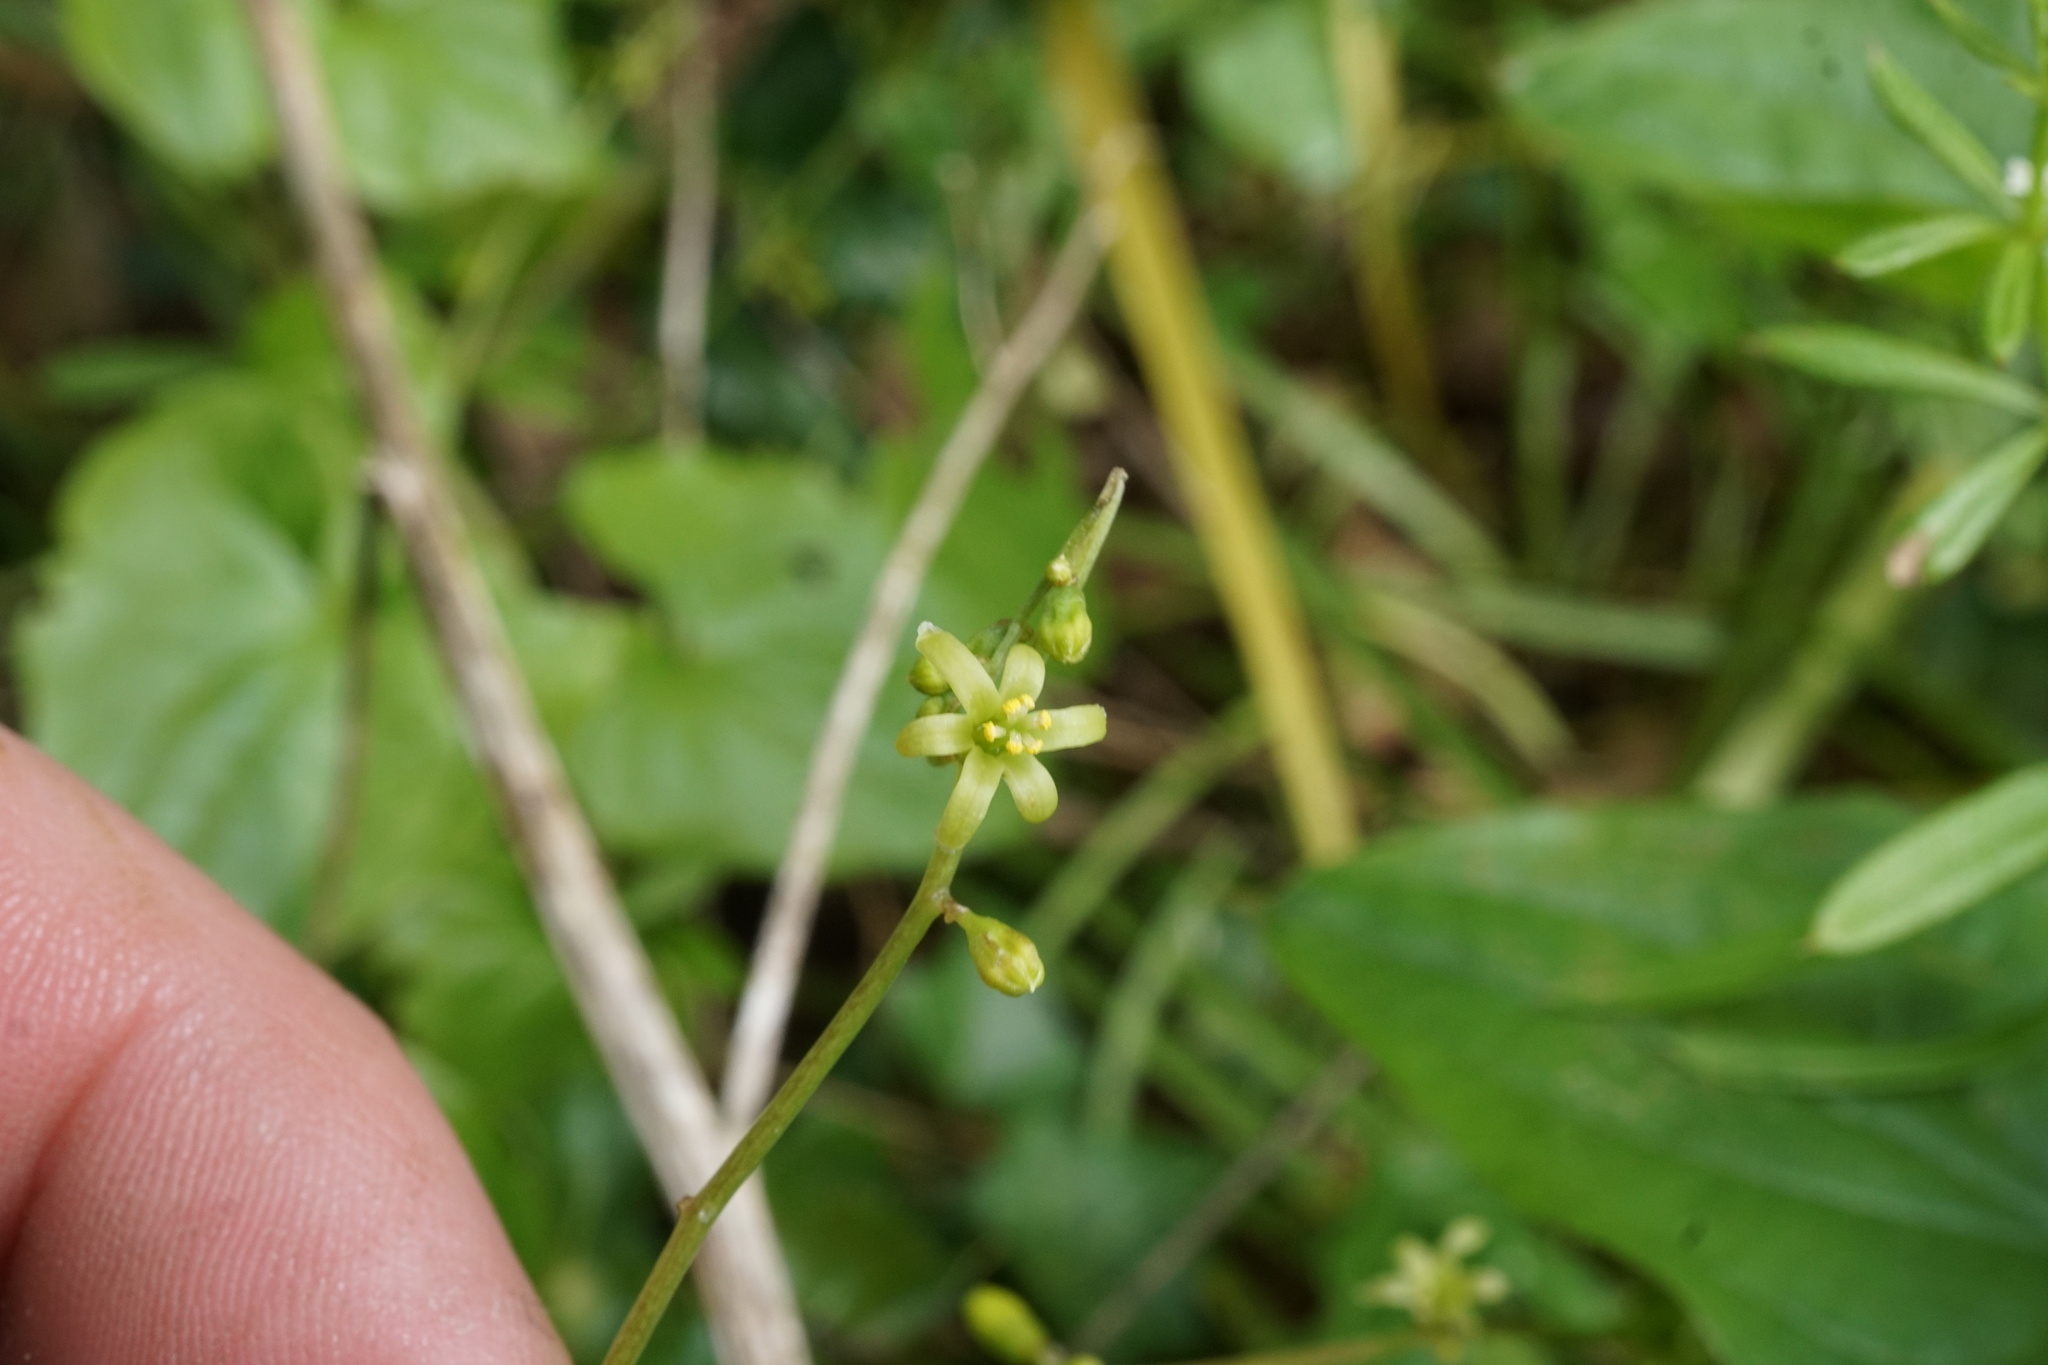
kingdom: Plantae
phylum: Tracheophyta
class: Liliopsida
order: Dioscoreales
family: Dioscoreaceae
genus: Dioscorea
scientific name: Dioscorea communis
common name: Black-bindweed
